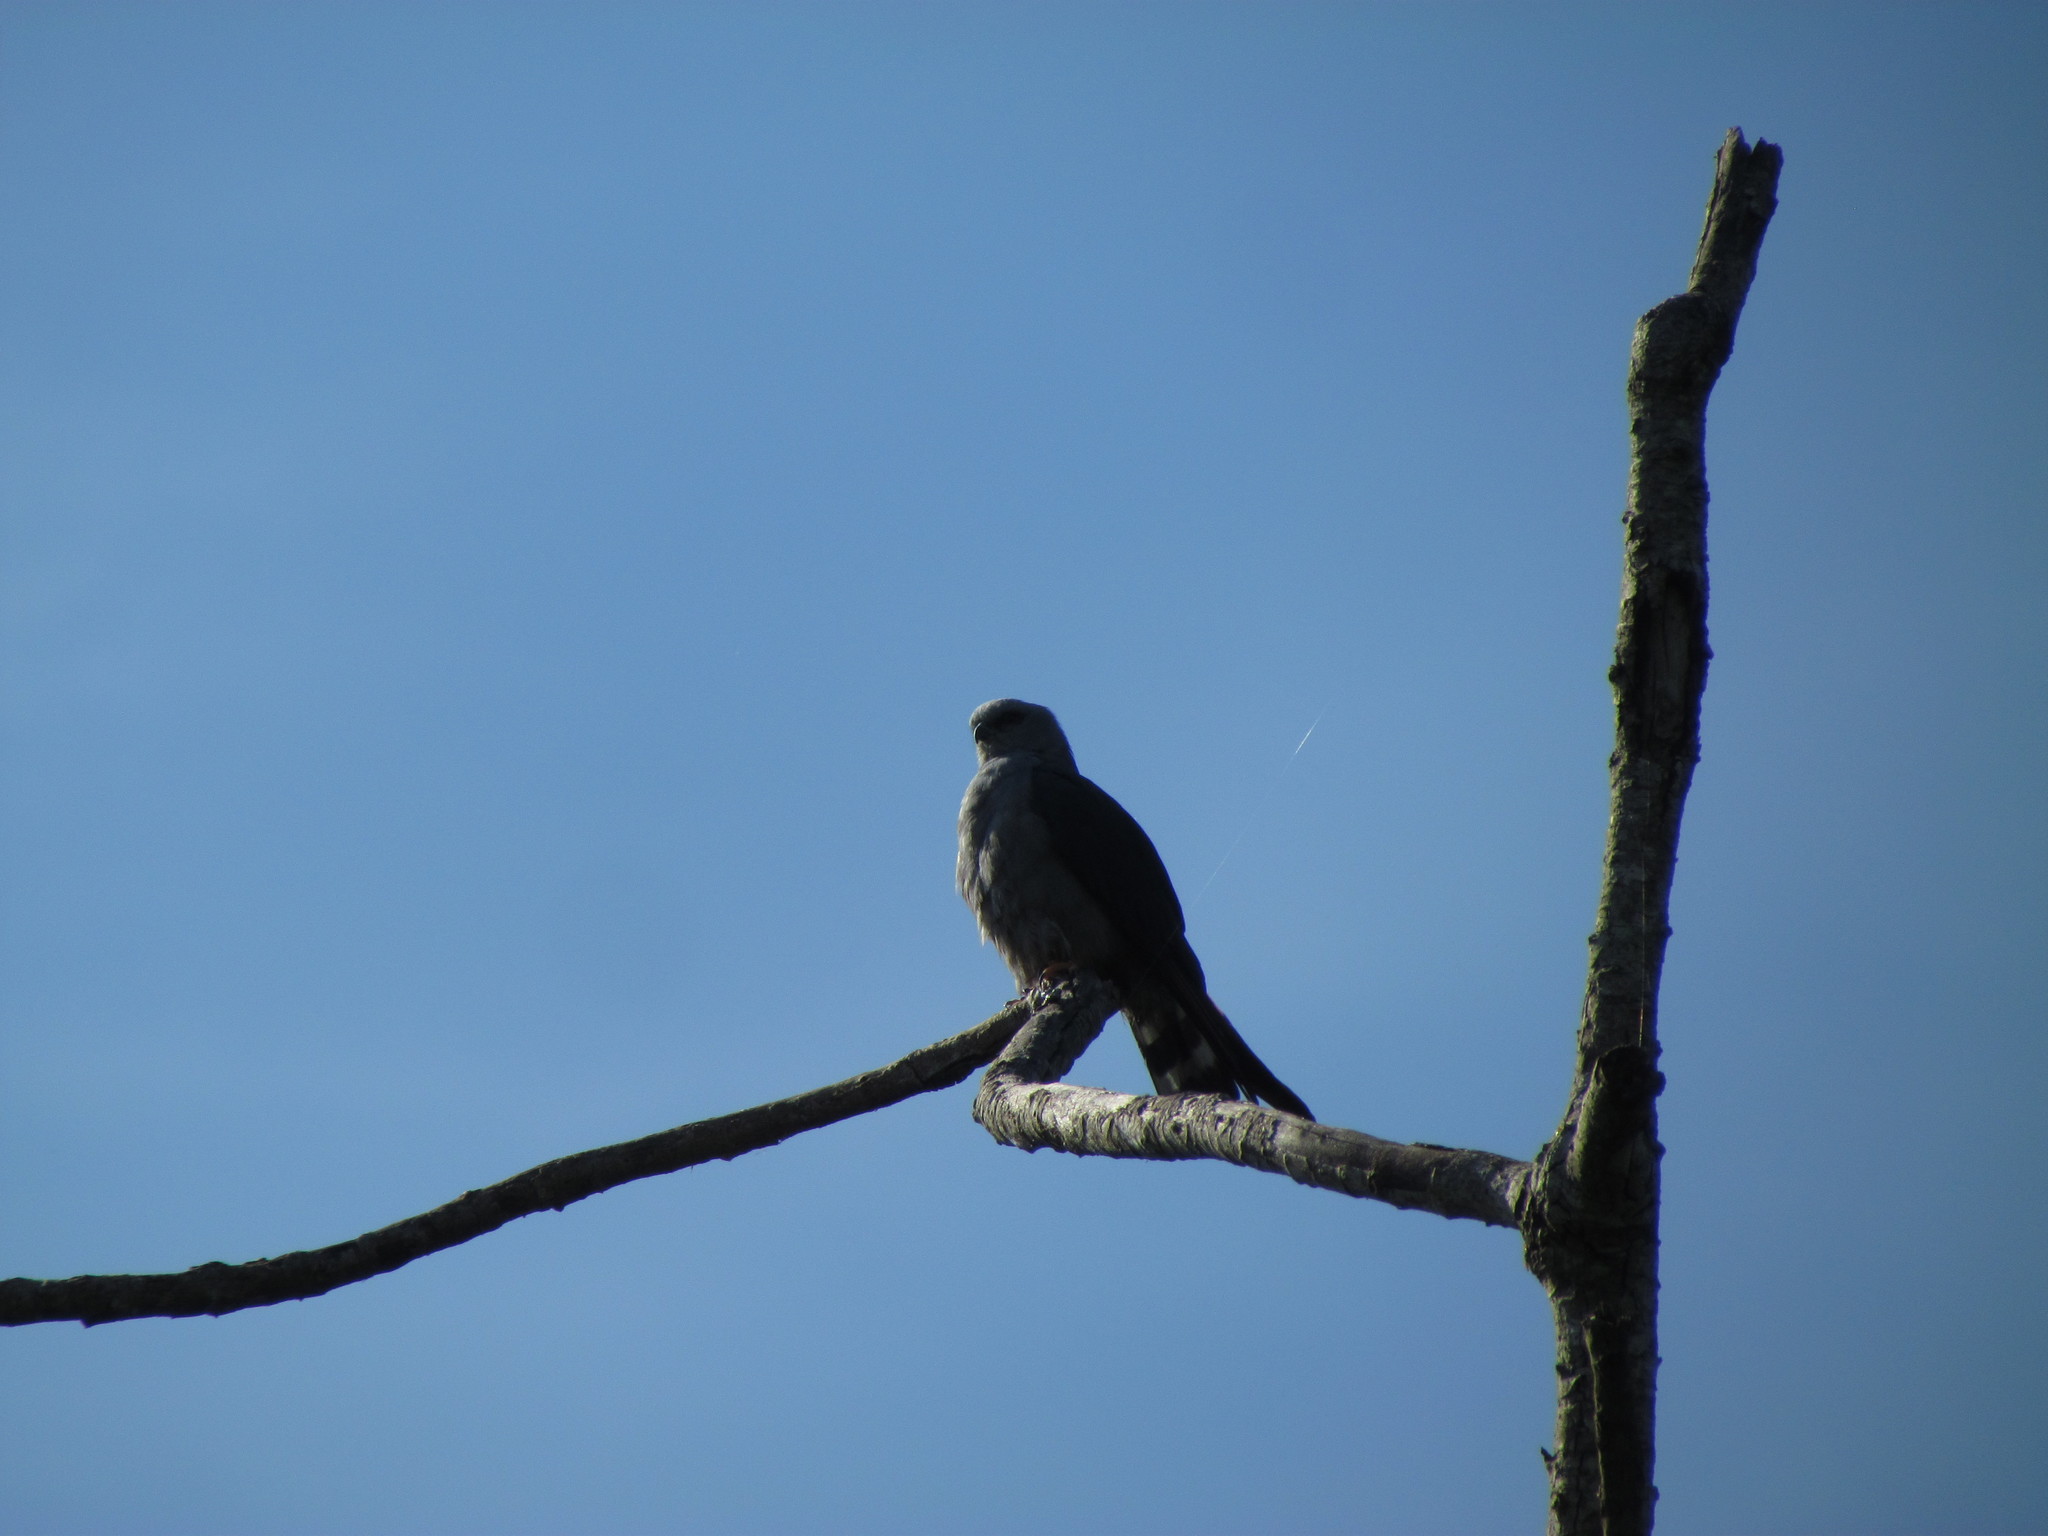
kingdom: Animalia
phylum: Chordata
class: Aves
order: Accipitriformes
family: Accipitridae
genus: Ictinia
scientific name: Ictinia plumbea
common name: Plumbeous kite
